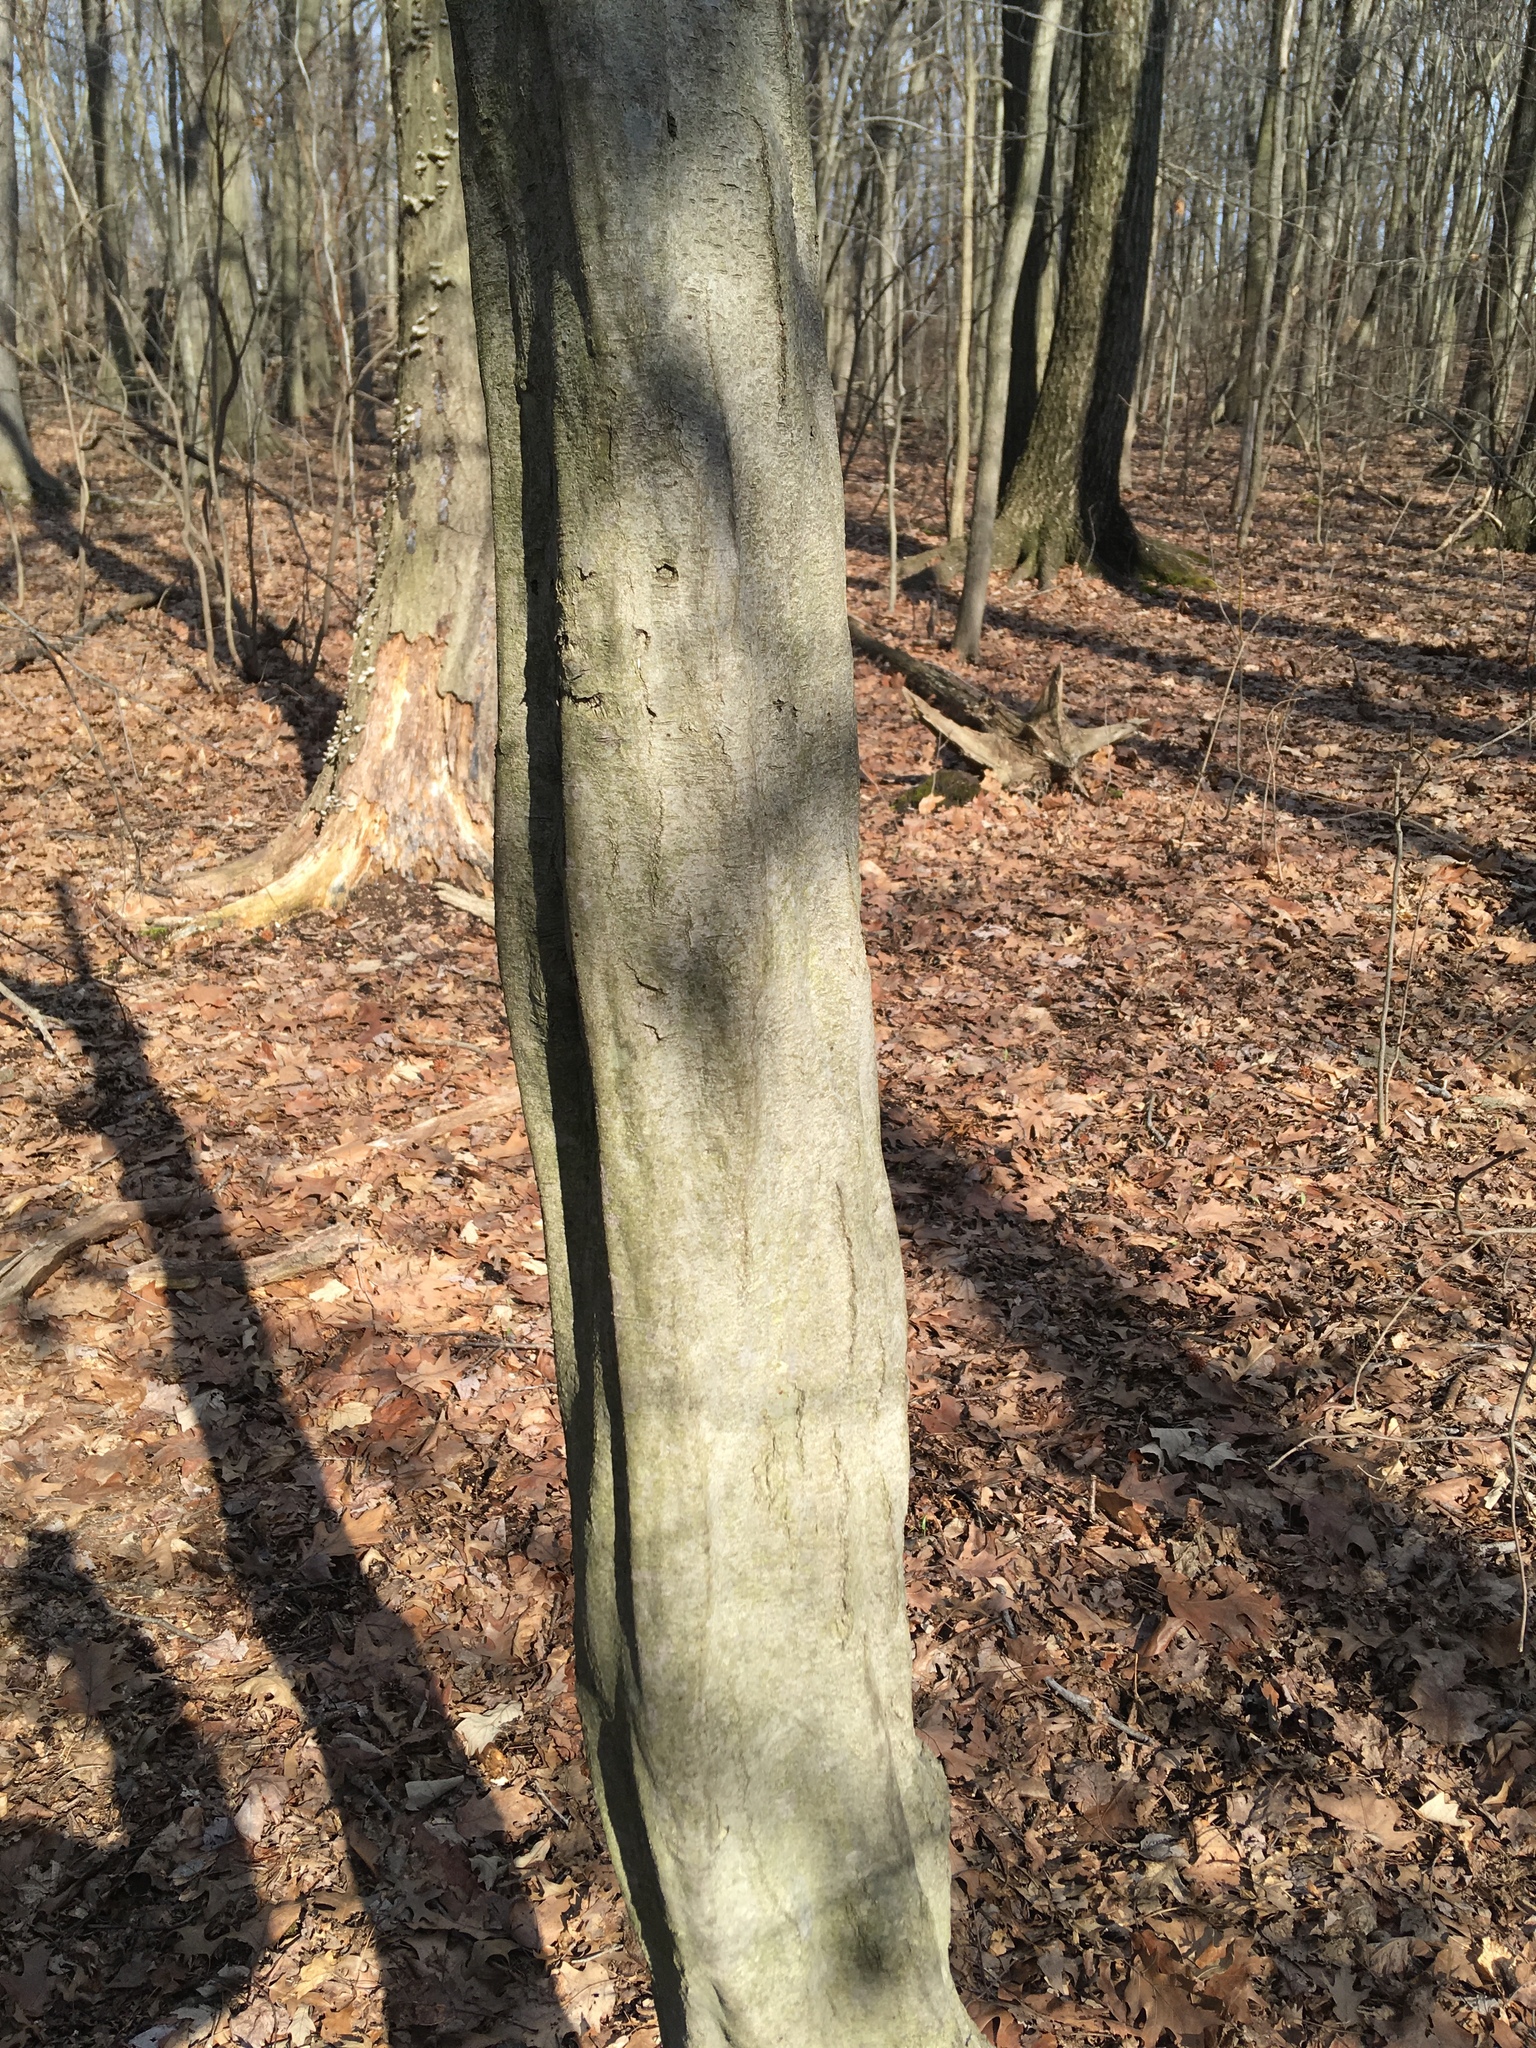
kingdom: Plantae
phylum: Tracheophyta
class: Magnoliopsida
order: Fagales
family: Betulaceae
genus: Carpinus
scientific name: Carpinus caroliniana
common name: American hornbeam
